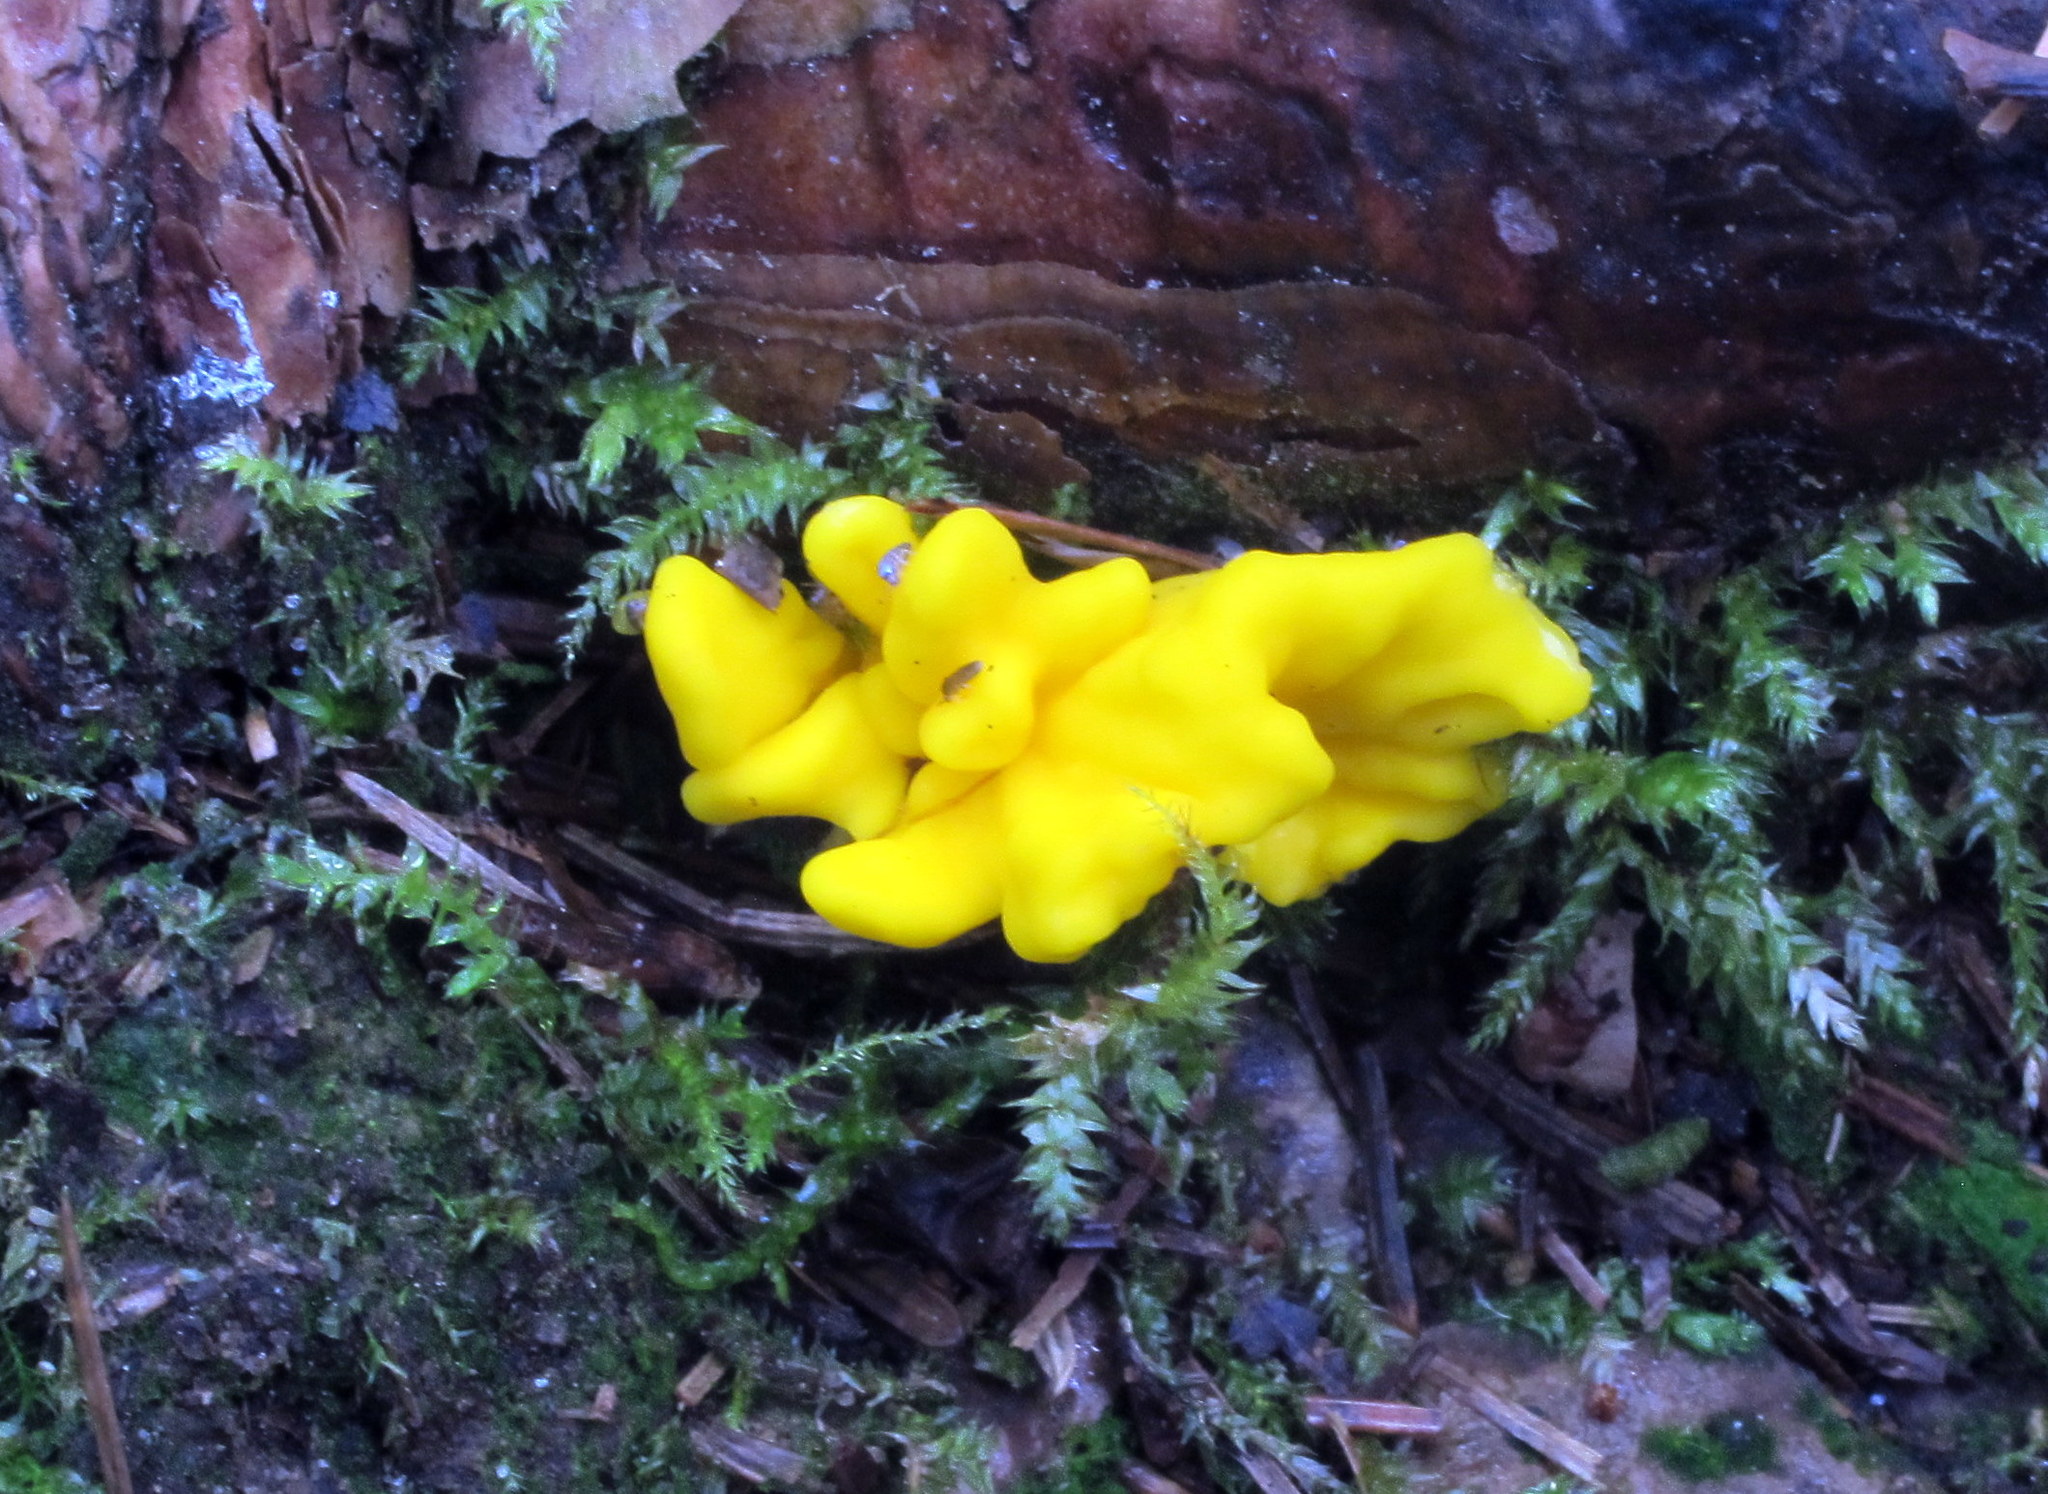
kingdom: Fungi
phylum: Ascomycota
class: Neolectomycetes
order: Neolectales
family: Neolectaceae
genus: Neolecta
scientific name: Neolecta irregularis
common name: Irregular earth tongue
